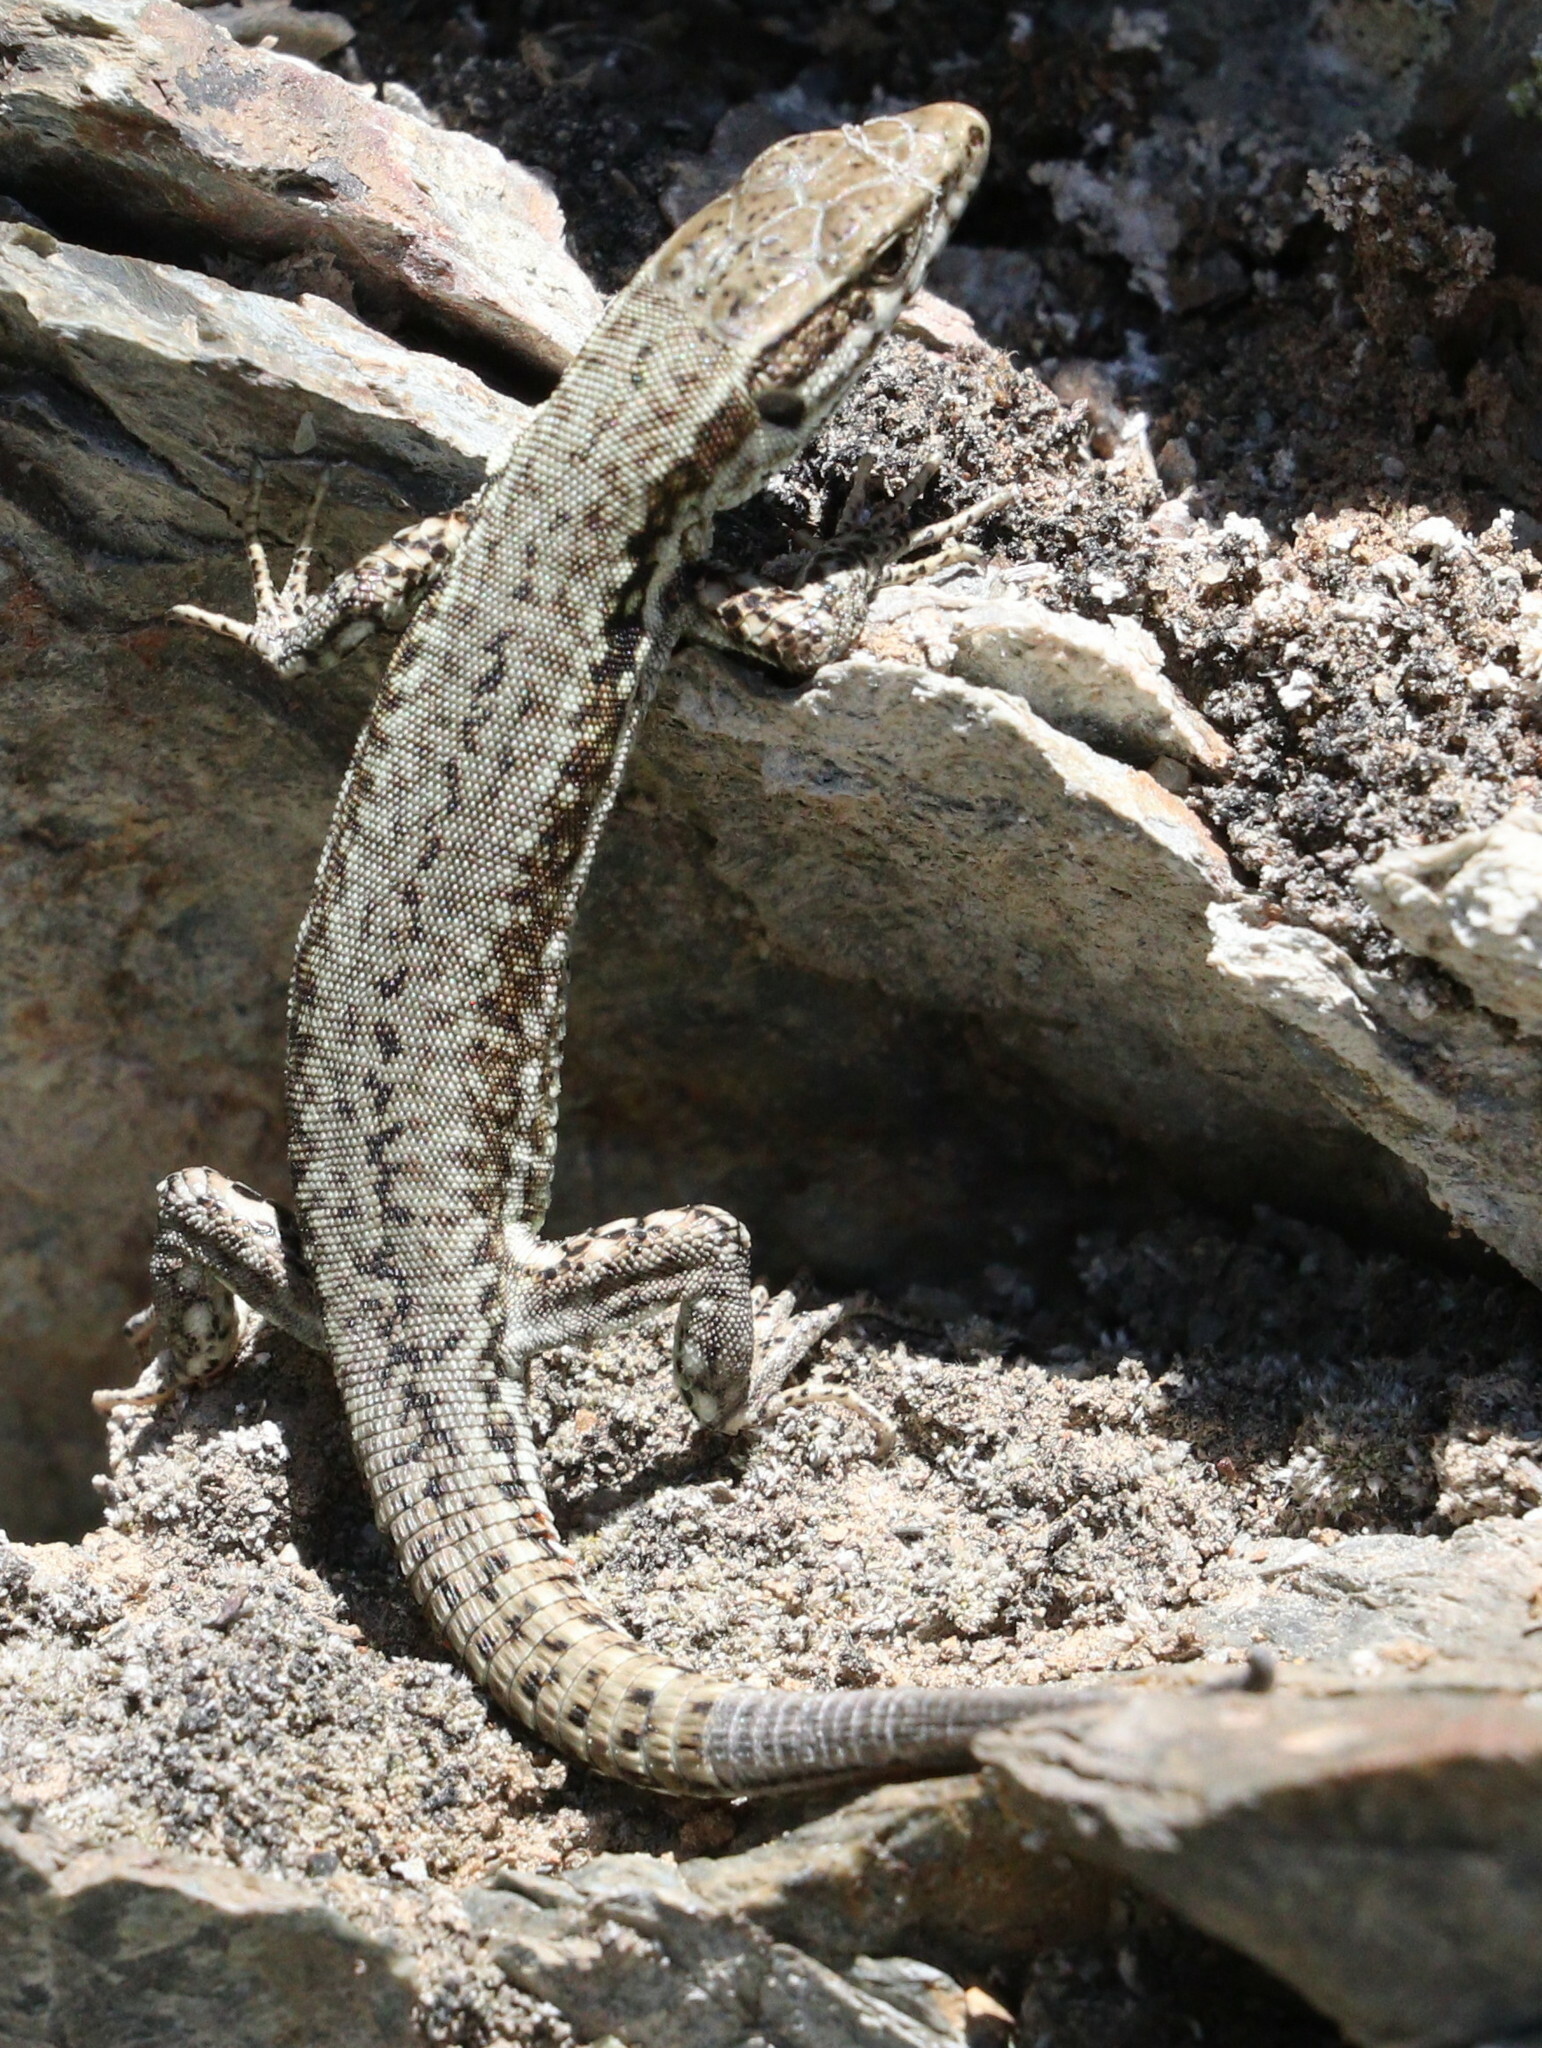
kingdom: Animalia
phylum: Chordata
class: Squamata
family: Lacertidae
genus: Podarcis
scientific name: Podarcis muralis
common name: Common wall lizard
